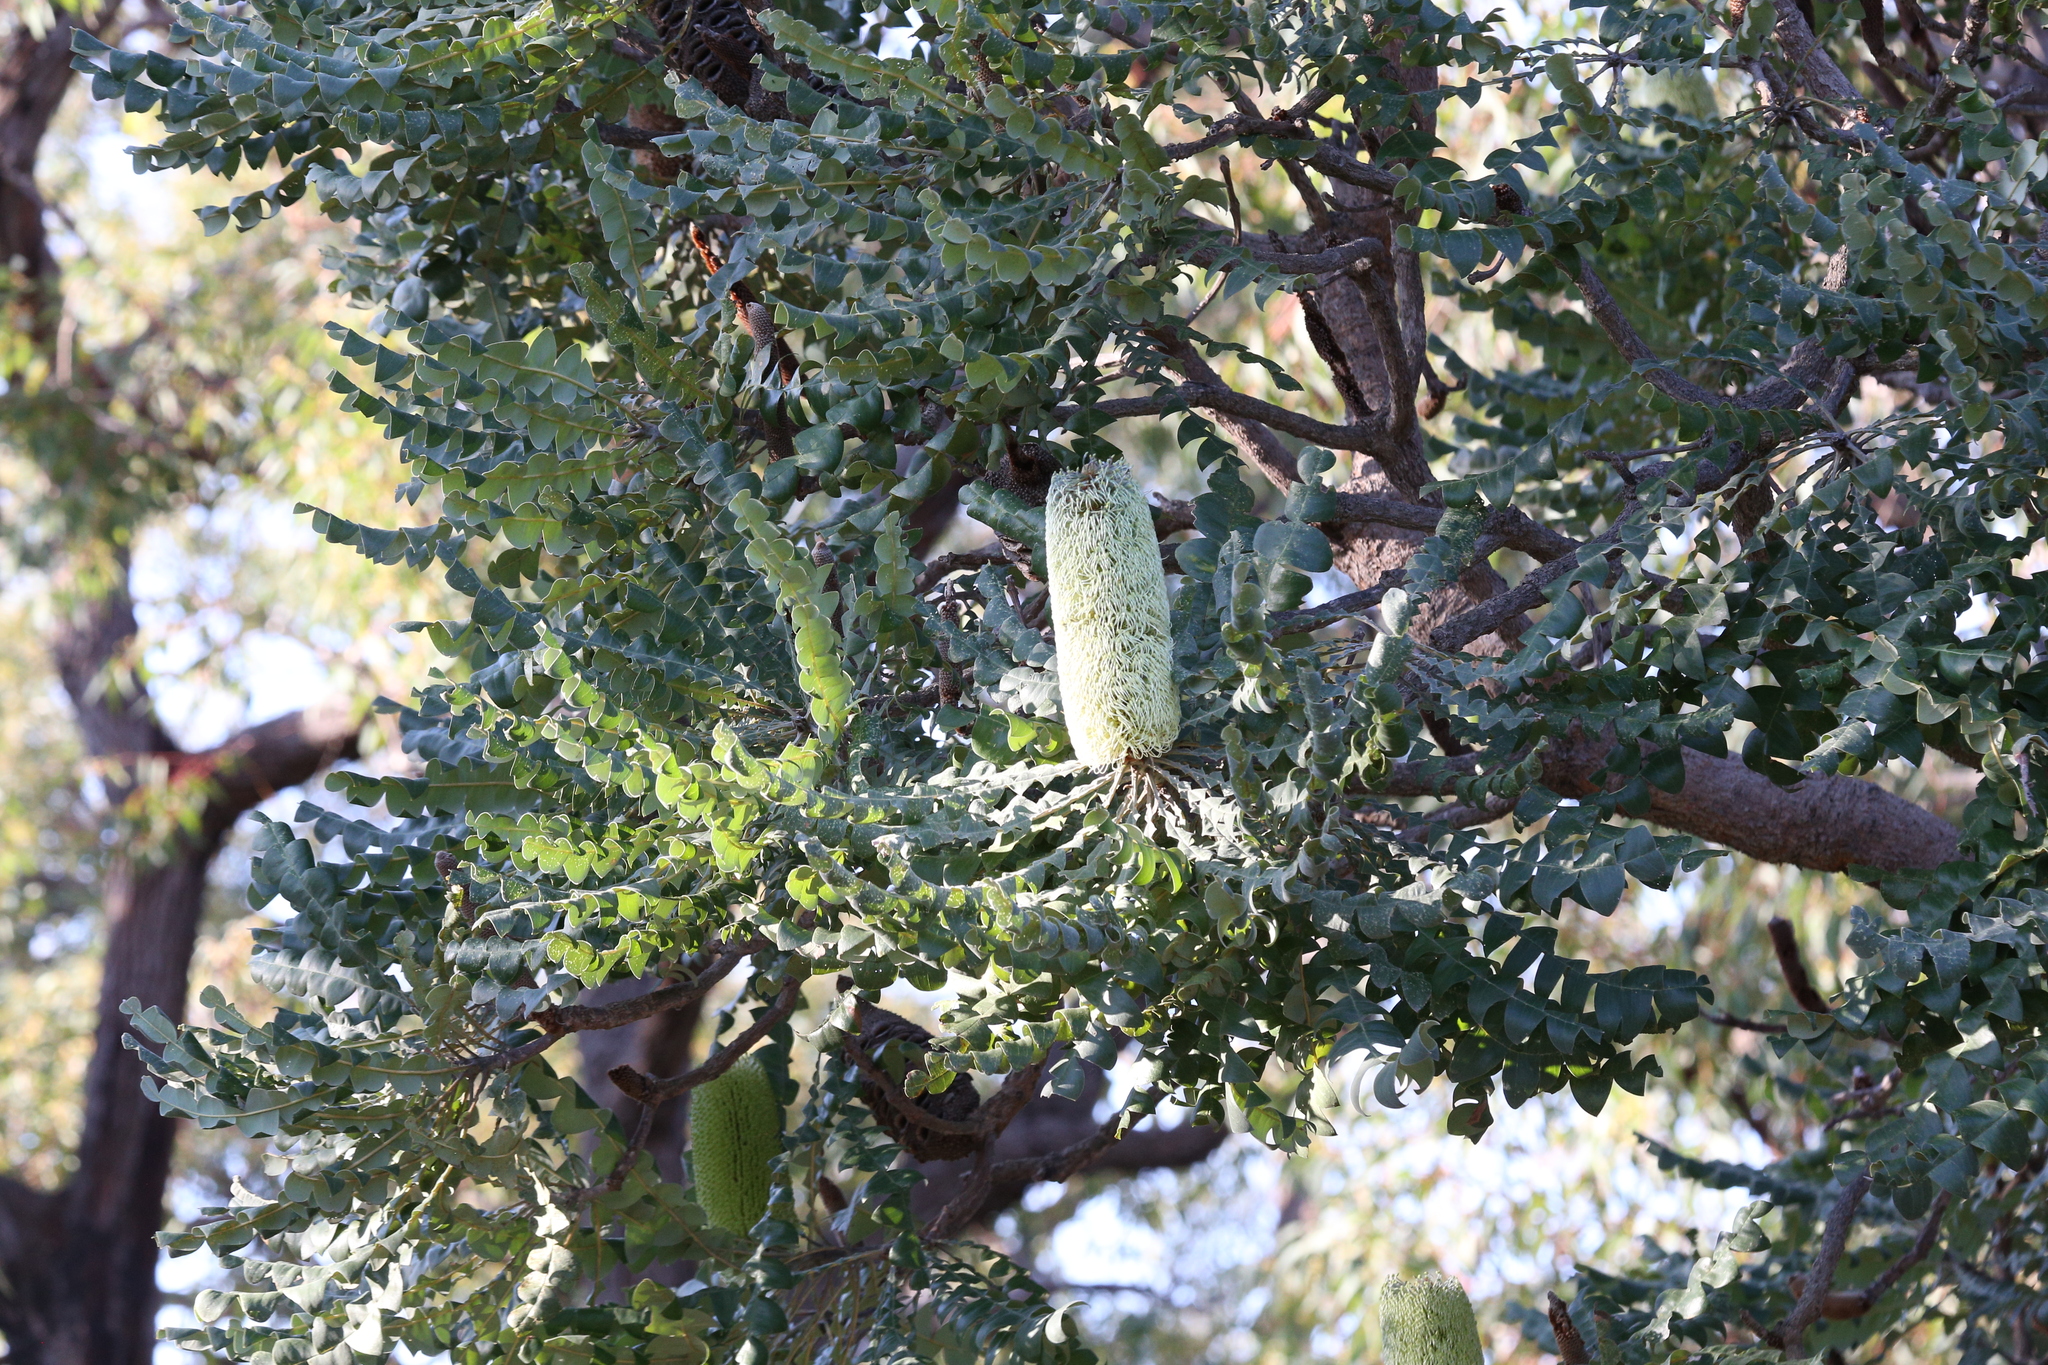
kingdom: Plantae
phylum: Tracheophyta
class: Magnoliopsida
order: Proteales
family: Proteaceae
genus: Banksia
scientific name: Banksia grandis
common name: Giant banksia
